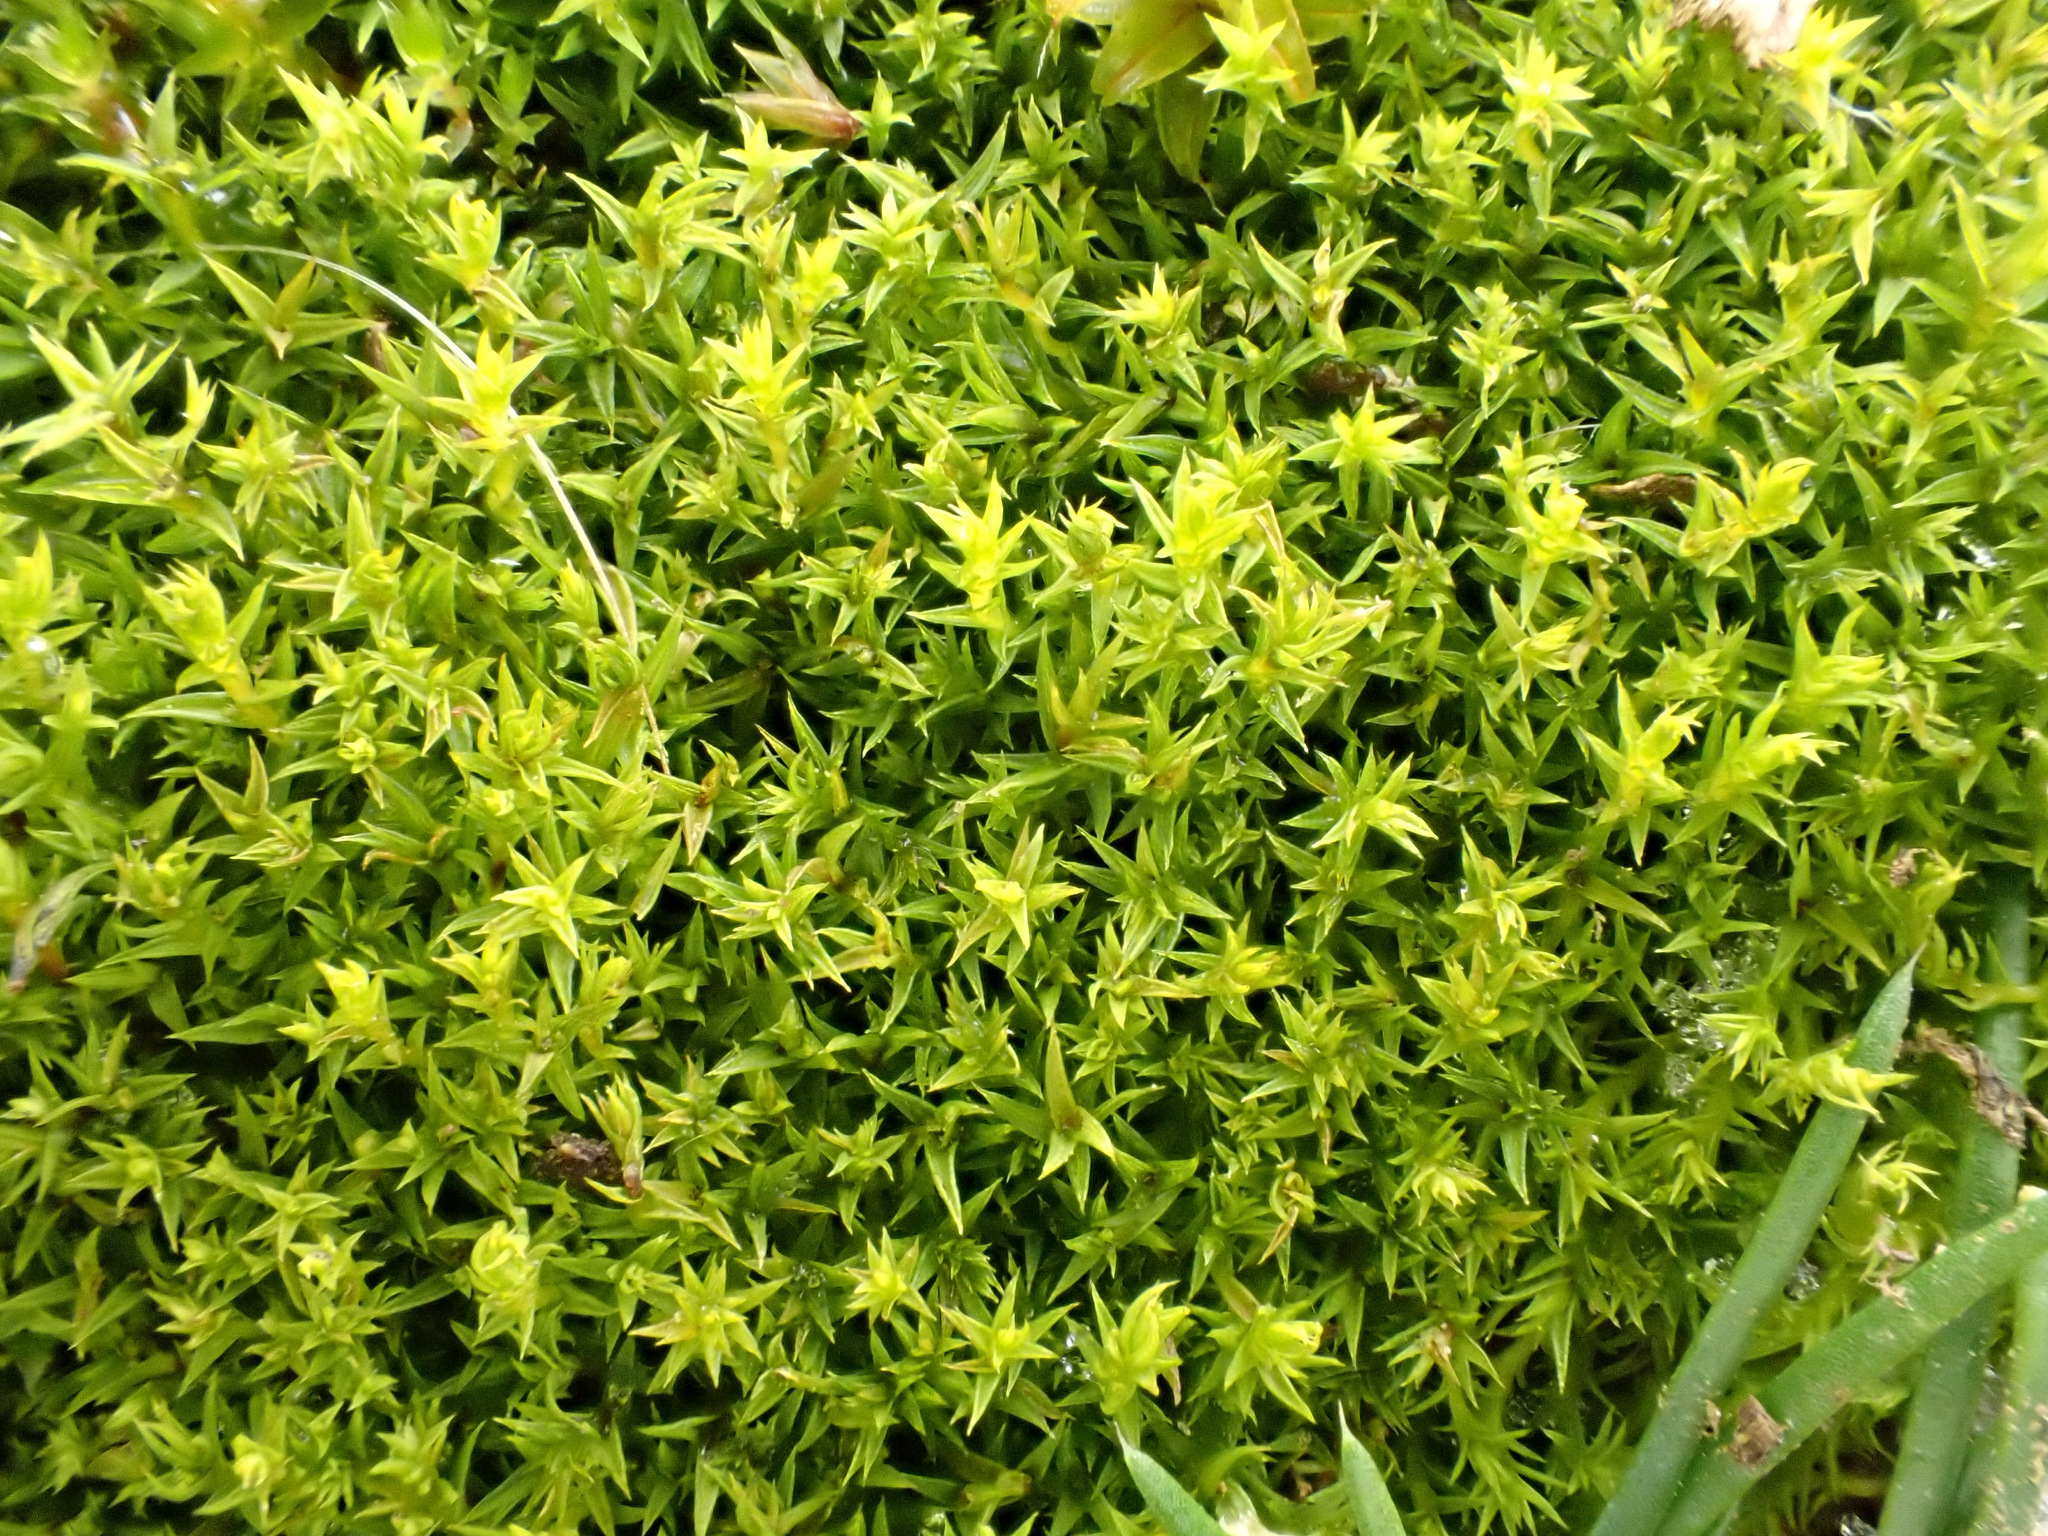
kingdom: Plantae
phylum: Bryophyta
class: Bryopsida
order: Pottiales
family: Pottiaceae
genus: Pseudocrossidium
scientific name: Pseudocrossidium hornschuchianum
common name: Hornschuch's beard-moss
